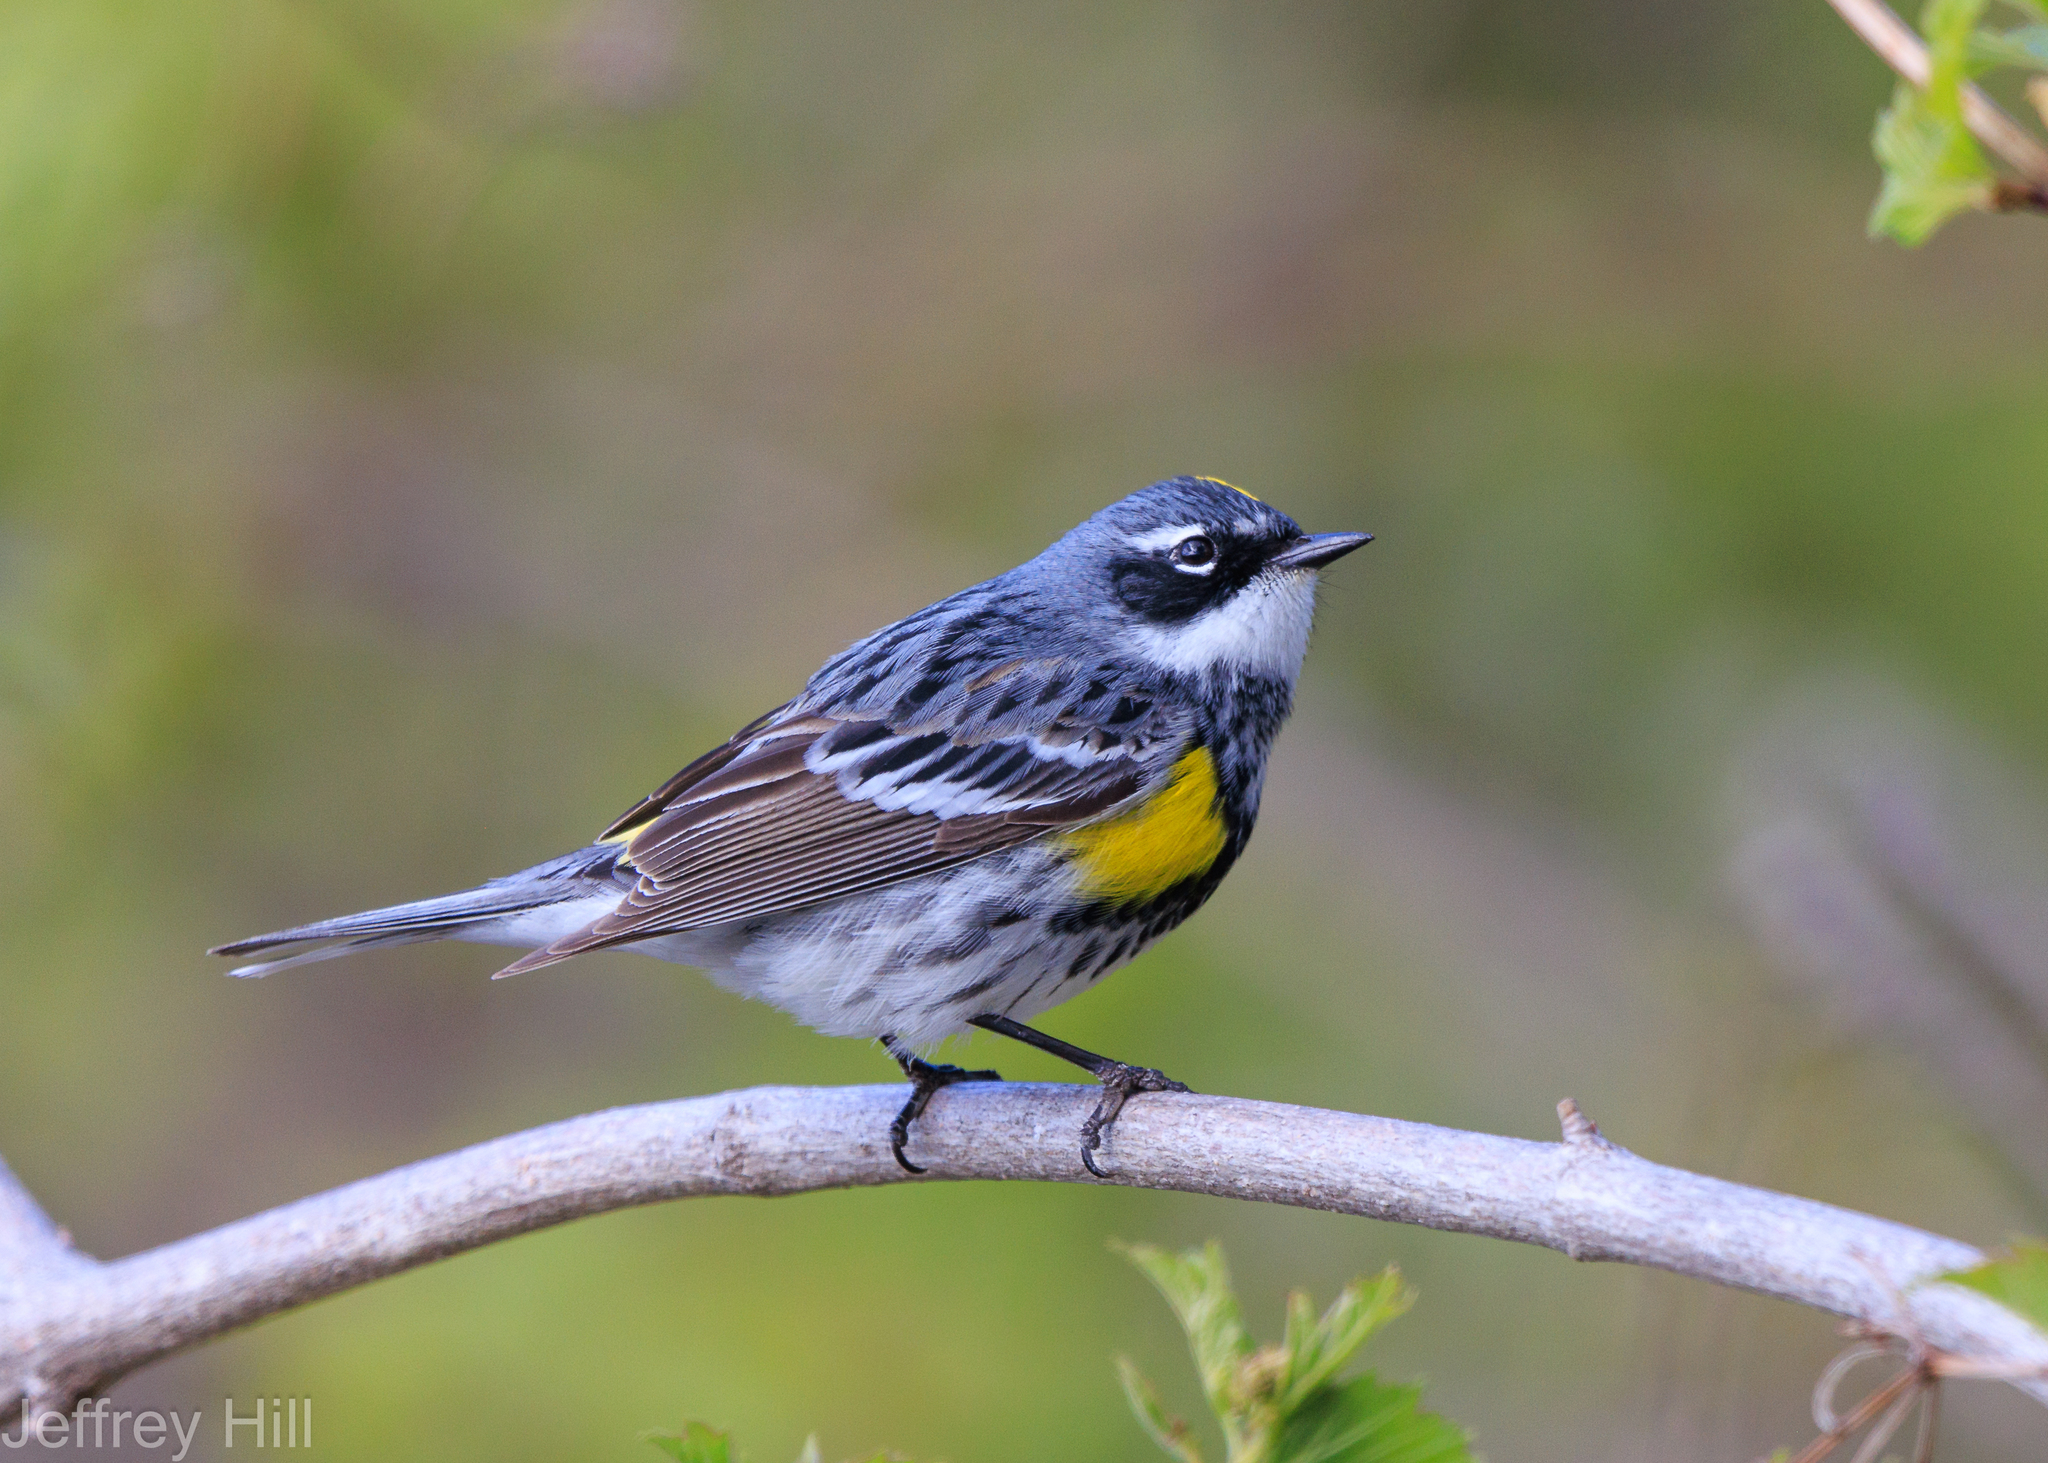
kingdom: Animalia
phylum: Chordata
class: Aves
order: Passeriformes
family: Parulidae
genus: Setophaga
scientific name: Setophaga coronata
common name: Myrtle warbler
